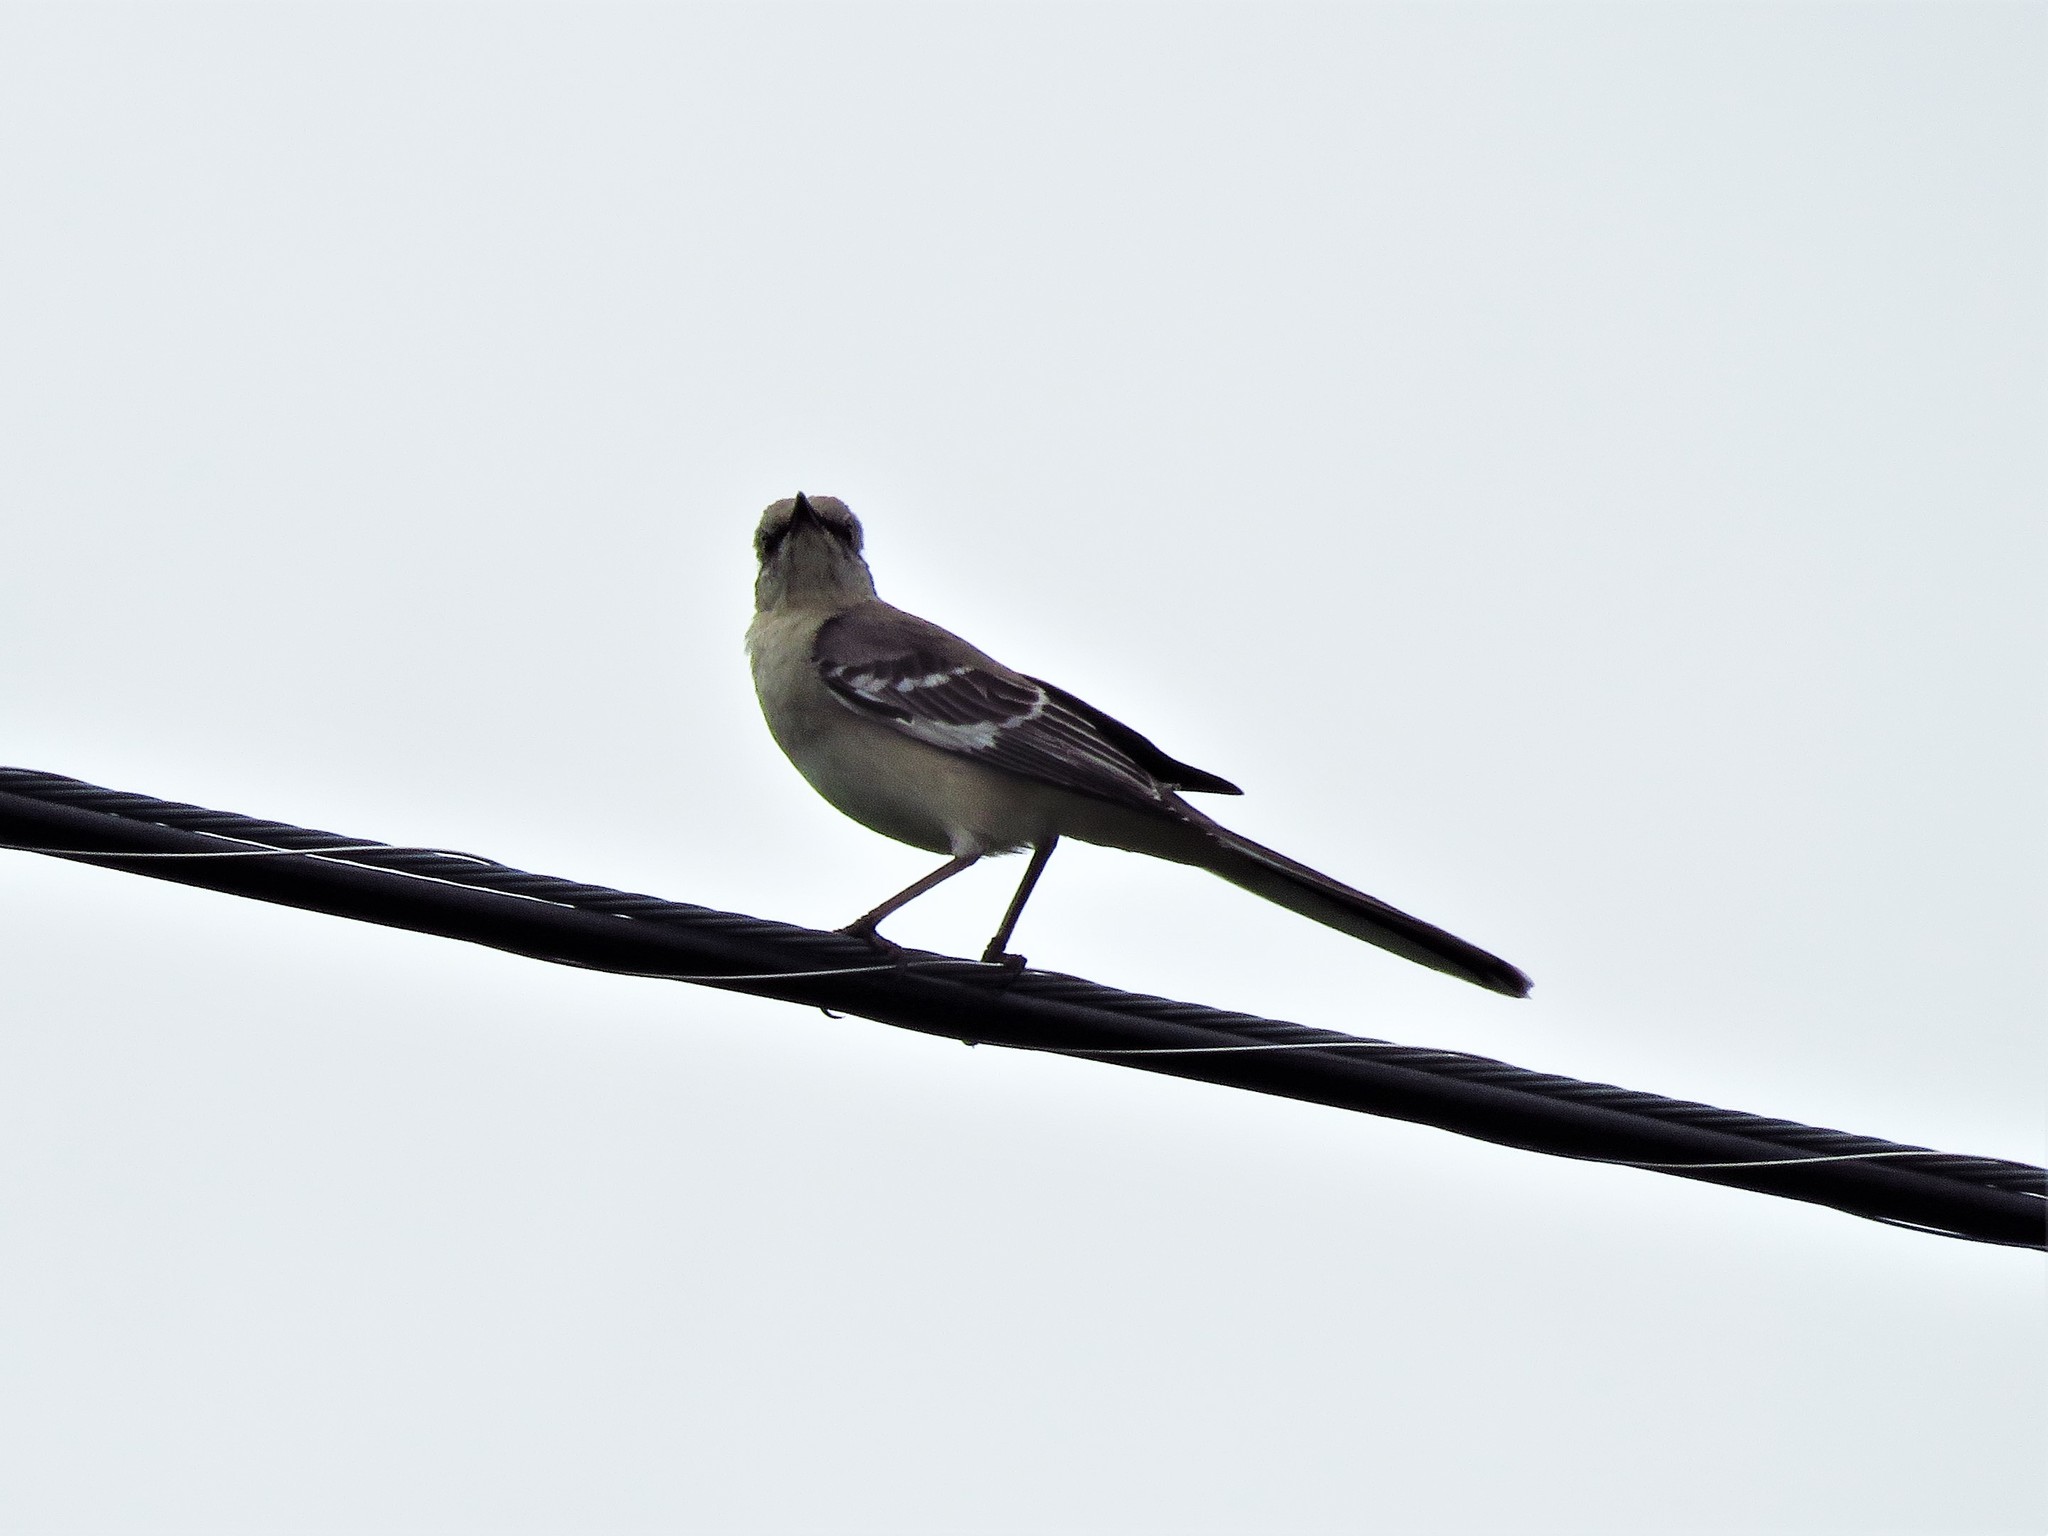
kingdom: Animalia
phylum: Chordata
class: Aves
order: Passeriformes
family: Mimidae
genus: Mimus
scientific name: Mimus polyglottos
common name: Northern mockingbird
